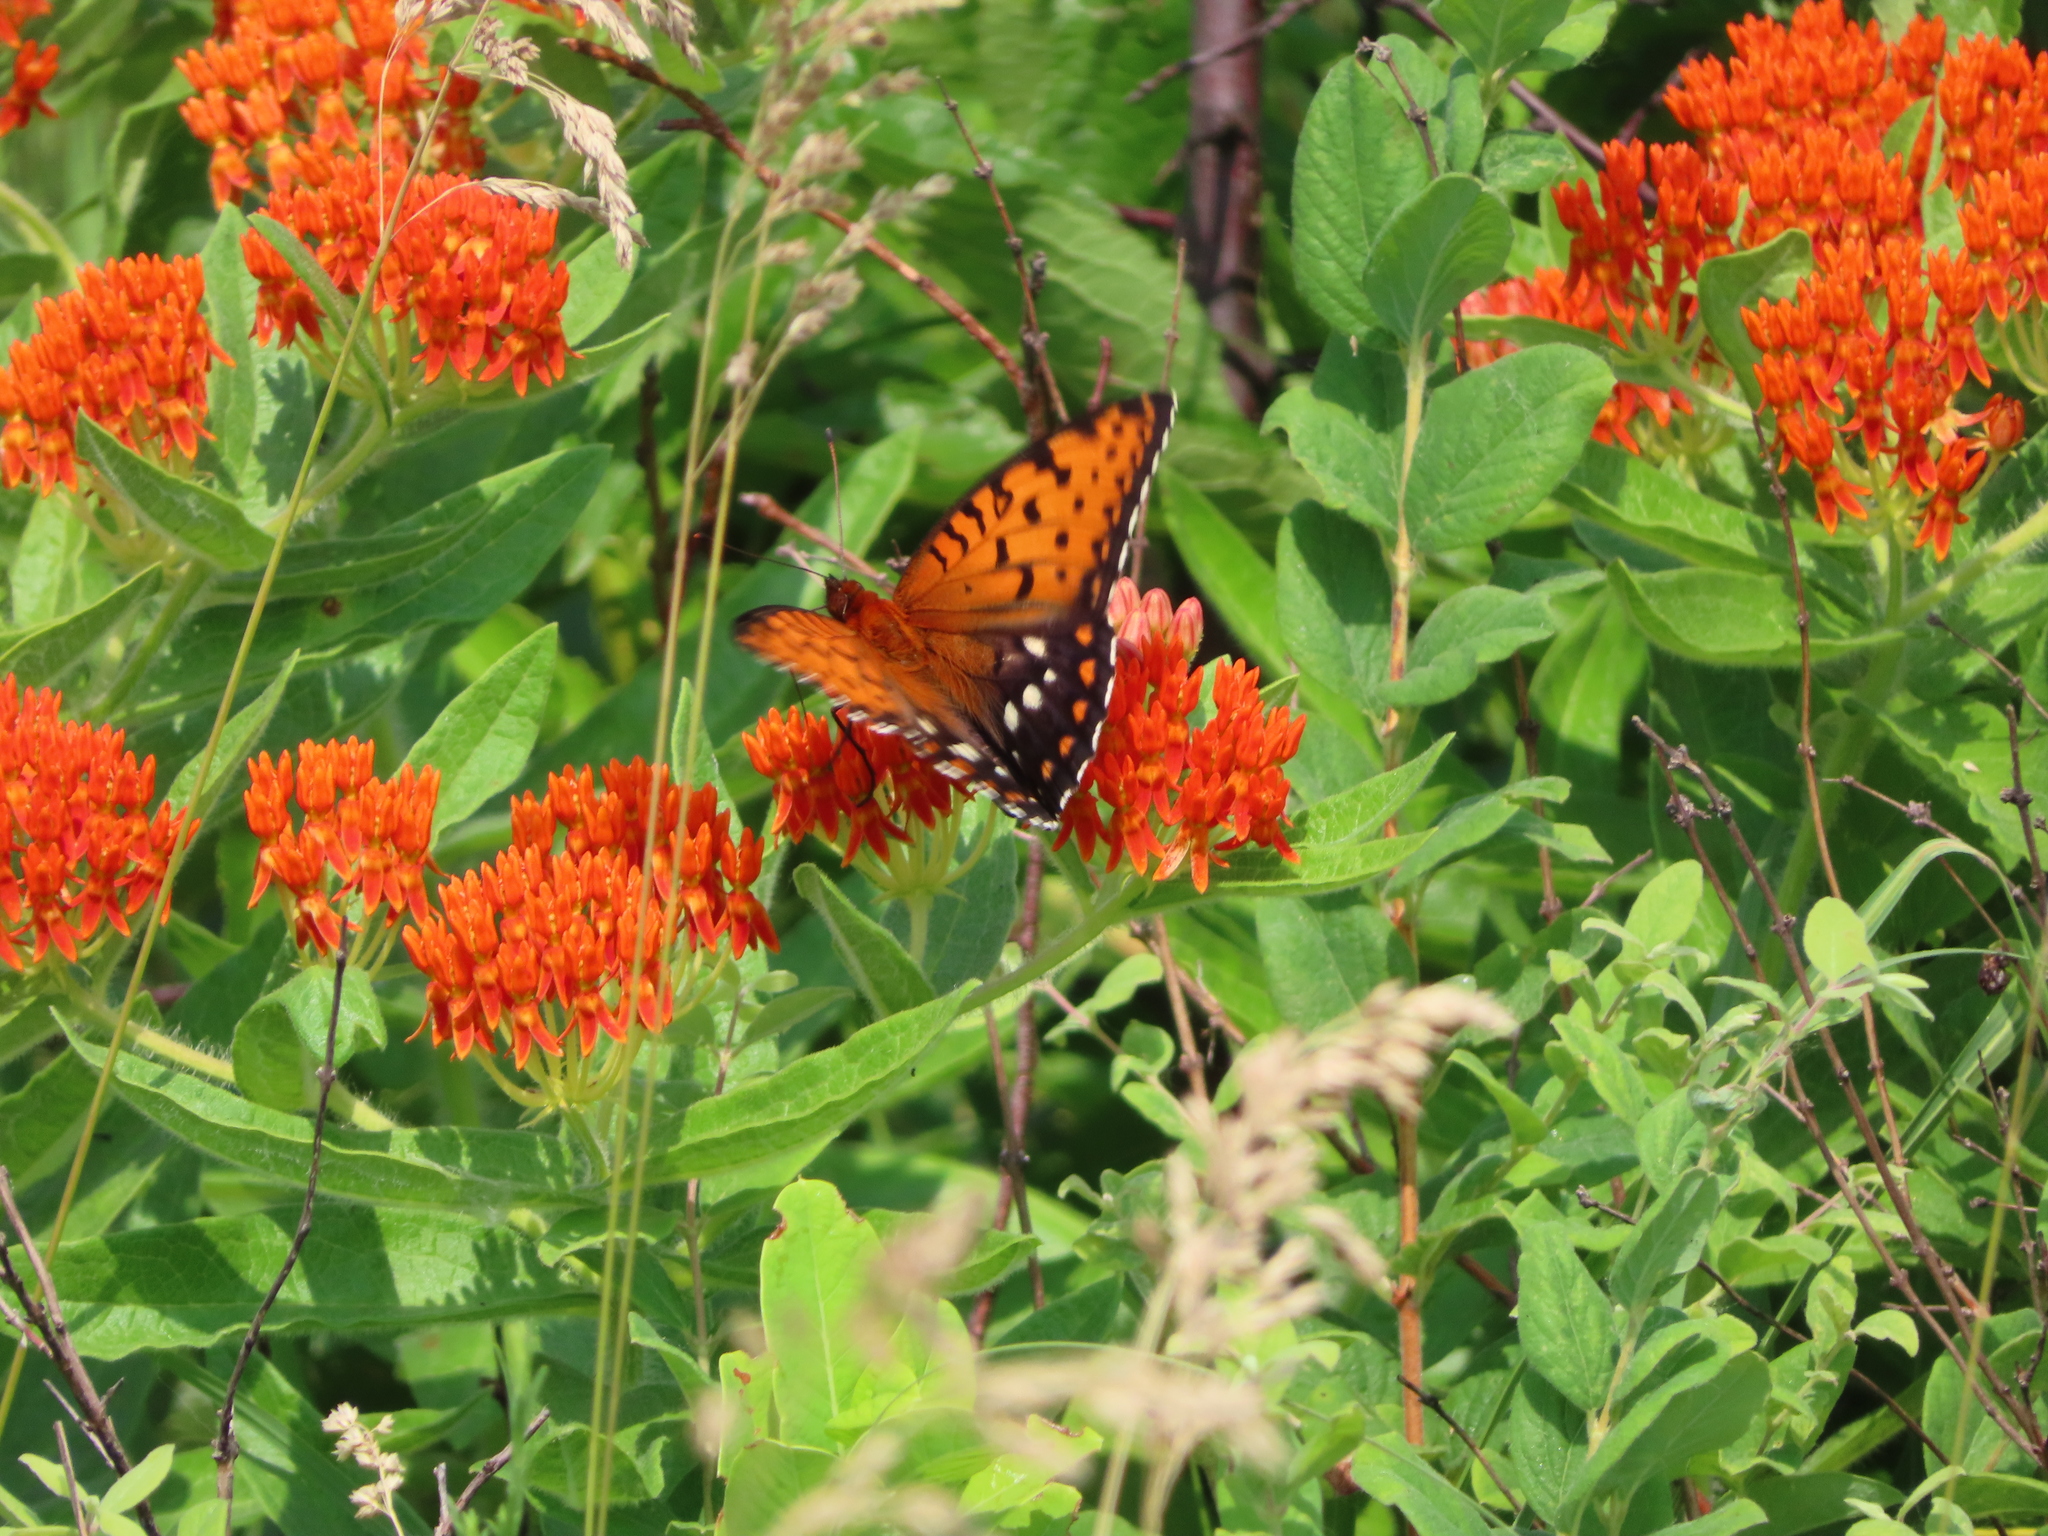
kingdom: Animalia
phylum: Arthropoda
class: Insecta
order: Lepidoptera
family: Nymphalidae
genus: Speyeria
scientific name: Speyeria idalia
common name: Regal fritillary
